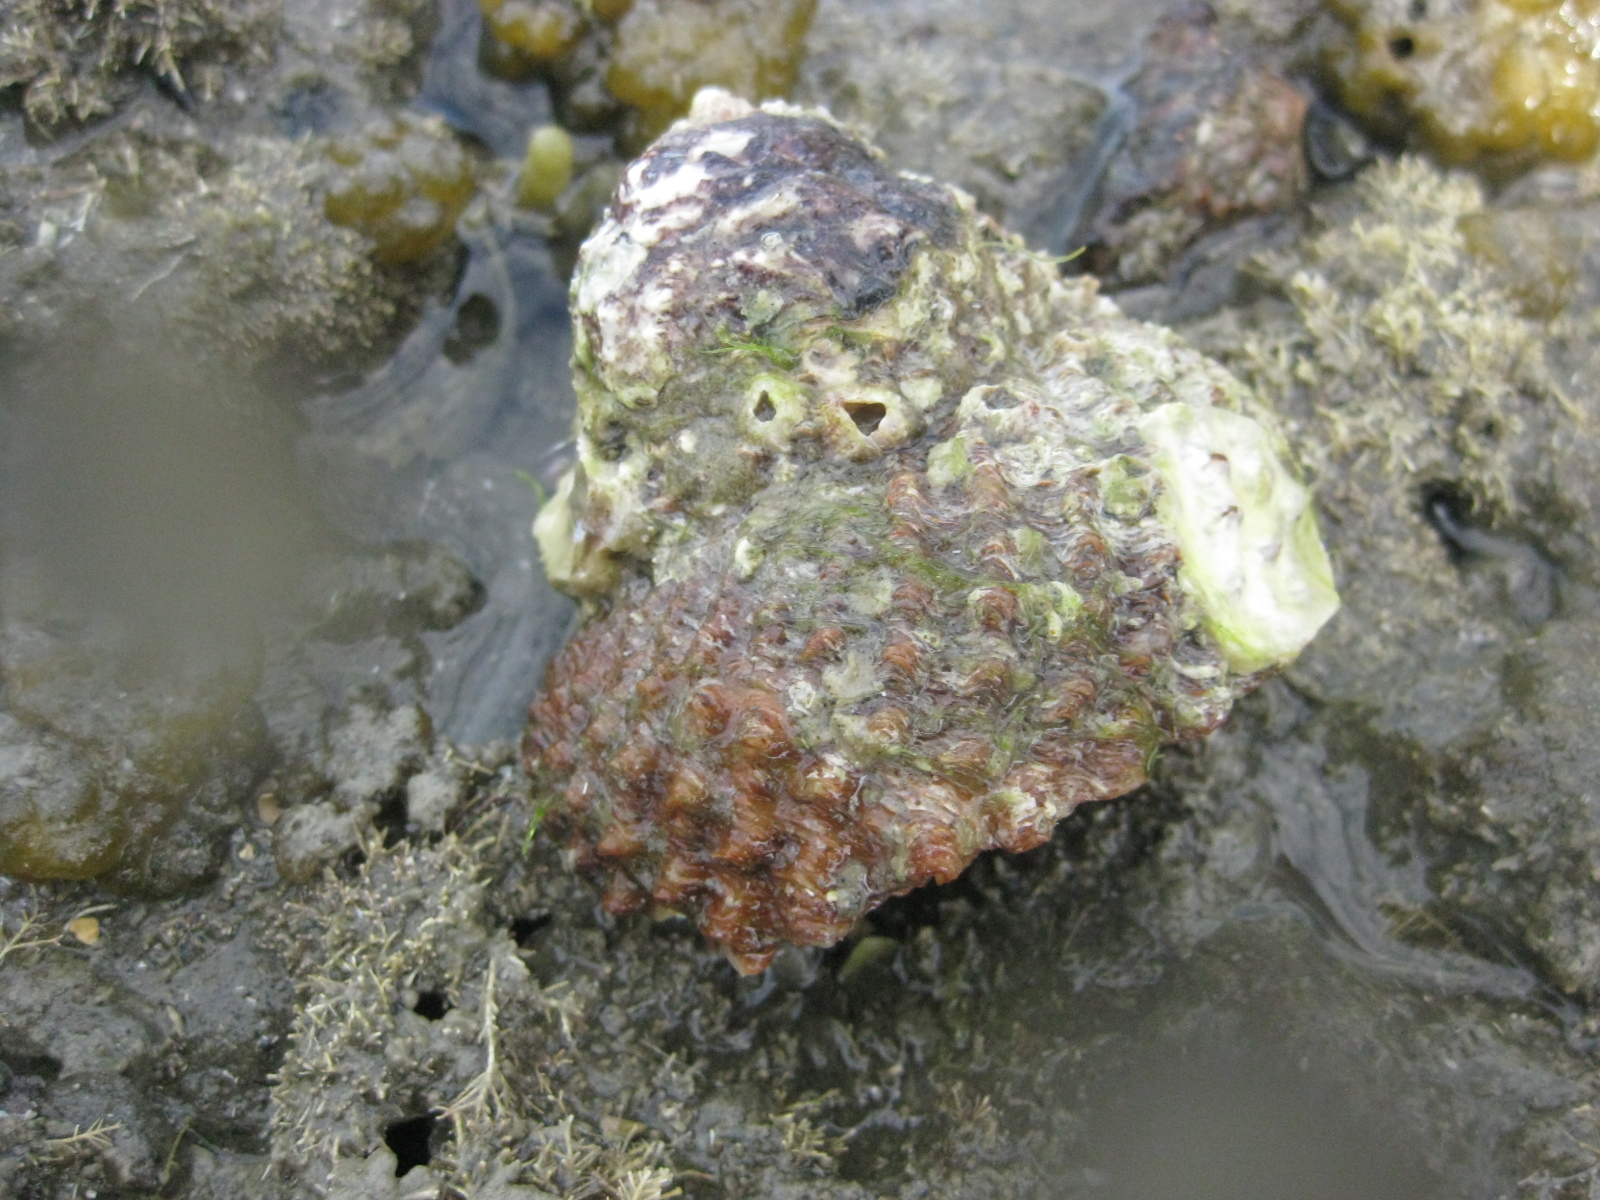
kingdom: Animalia
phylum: Mollusca
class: Gastropoda
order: Trochida
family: Turbinidae
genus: Cookia
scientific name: Cookia sulcata
